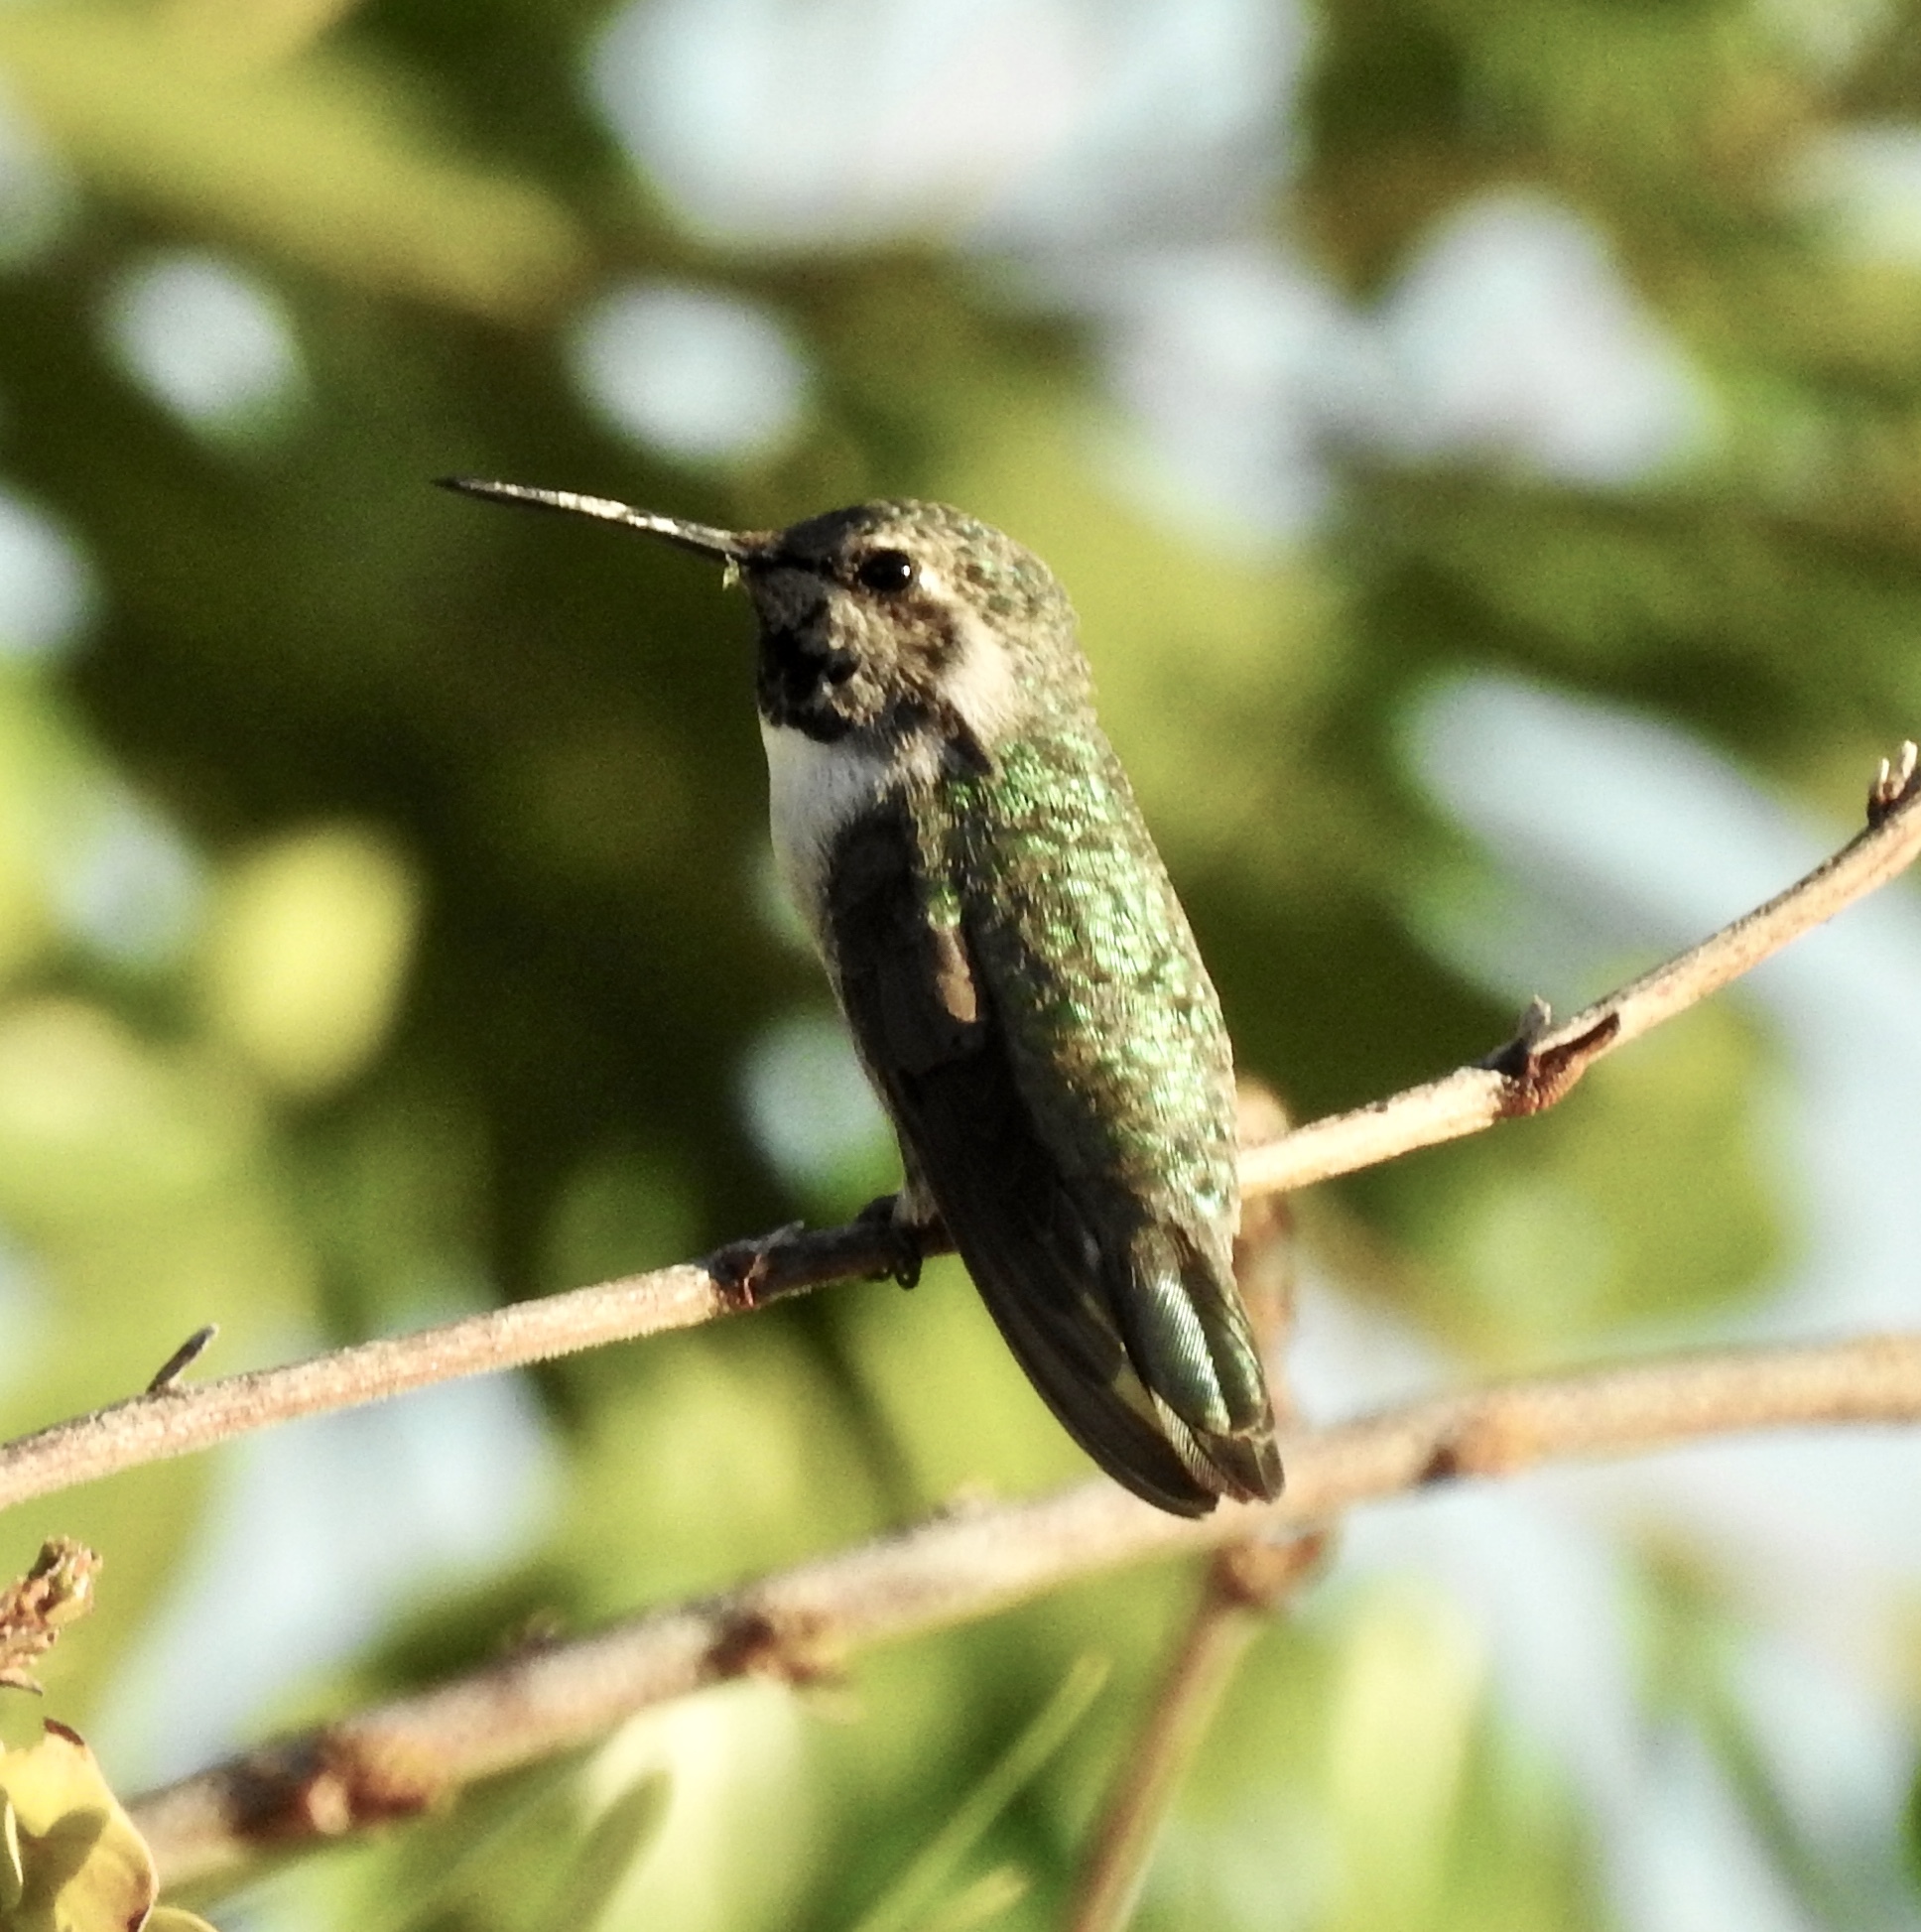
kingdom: Animalia
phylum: Chordata
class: Aves
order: Apodiformes
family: Trochilidae
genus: Calypte
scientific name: Calypte costae
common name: Costa's hummingbird
